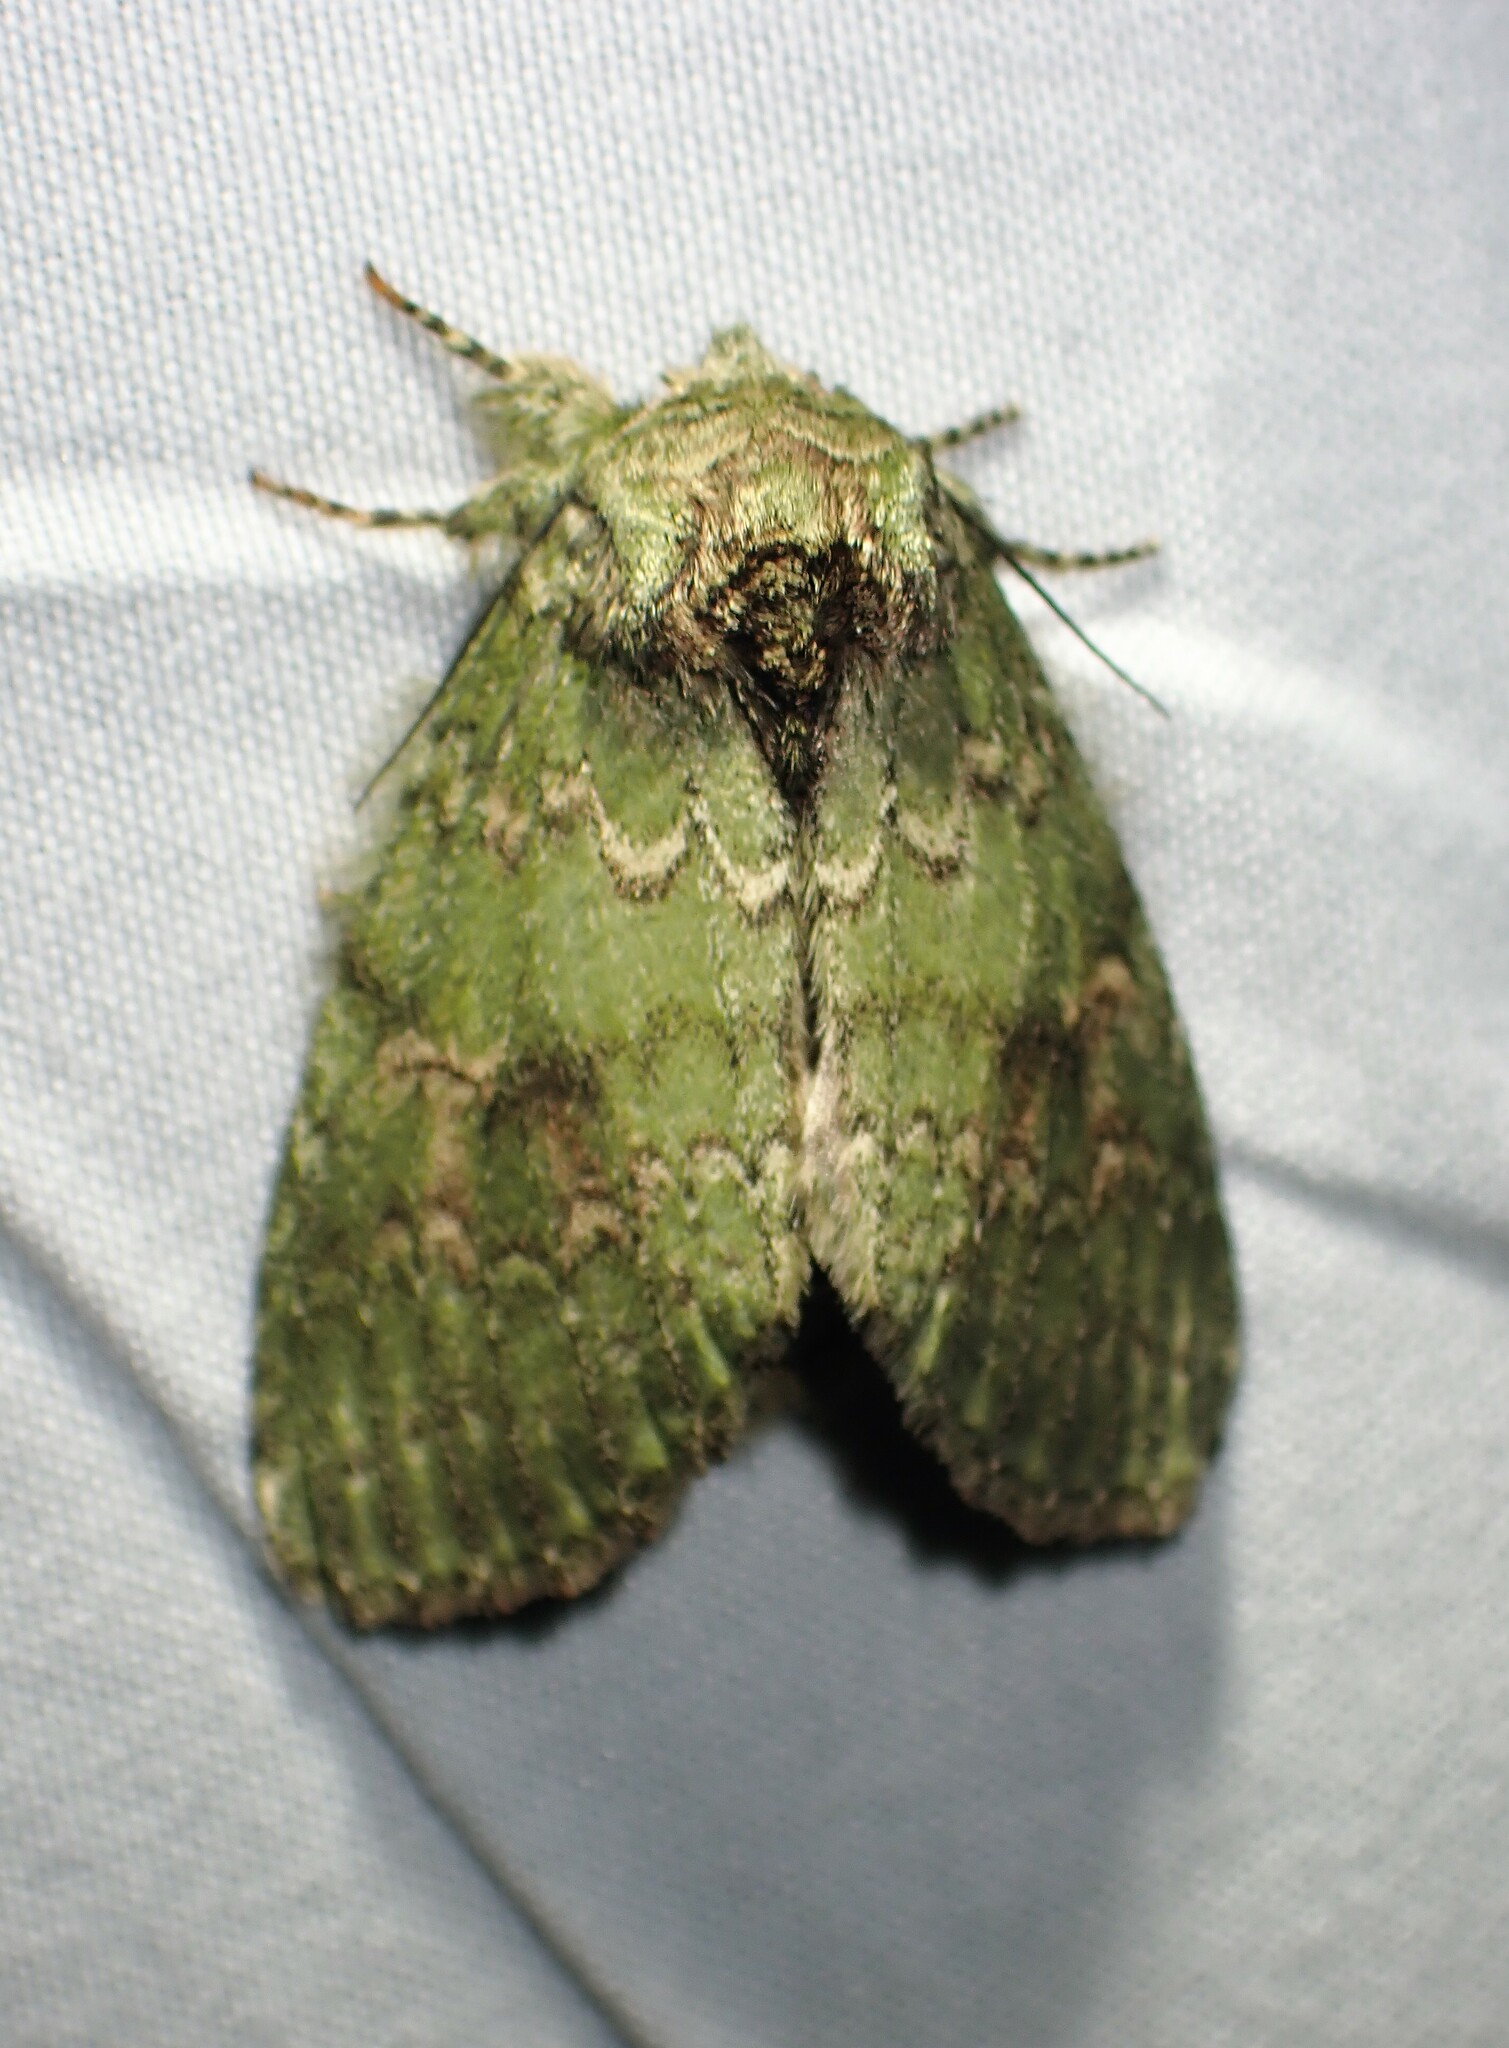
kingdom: Animalia
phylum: Arthropoda
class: Insecta
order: Lepidoptera
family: Notodontidae
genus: Disphragis
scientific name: Disphragis Cecrita biundata
